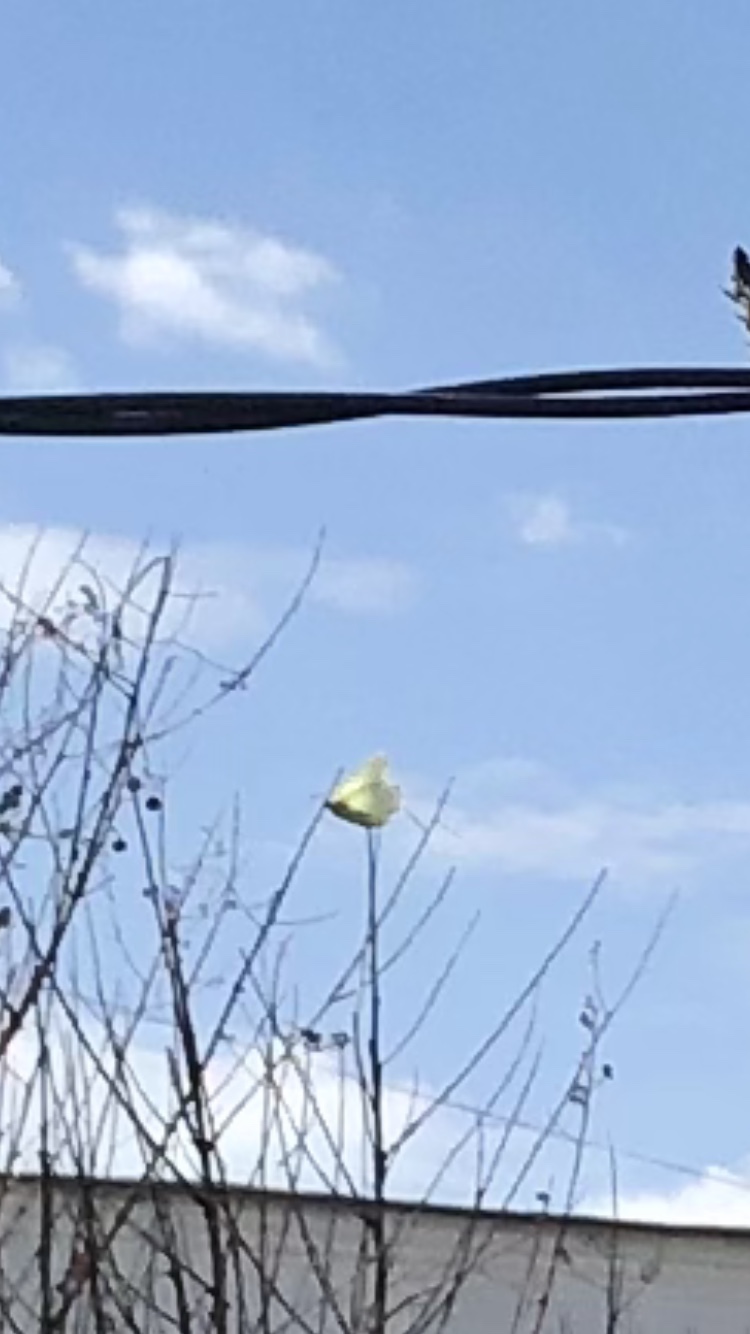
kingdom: Animalia
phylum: Arthropoda
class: Insecta
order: Lepidoptera
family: Pieridae
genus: Gonepteryx
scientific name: Gonepteryx rhamni
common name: Brimstone
